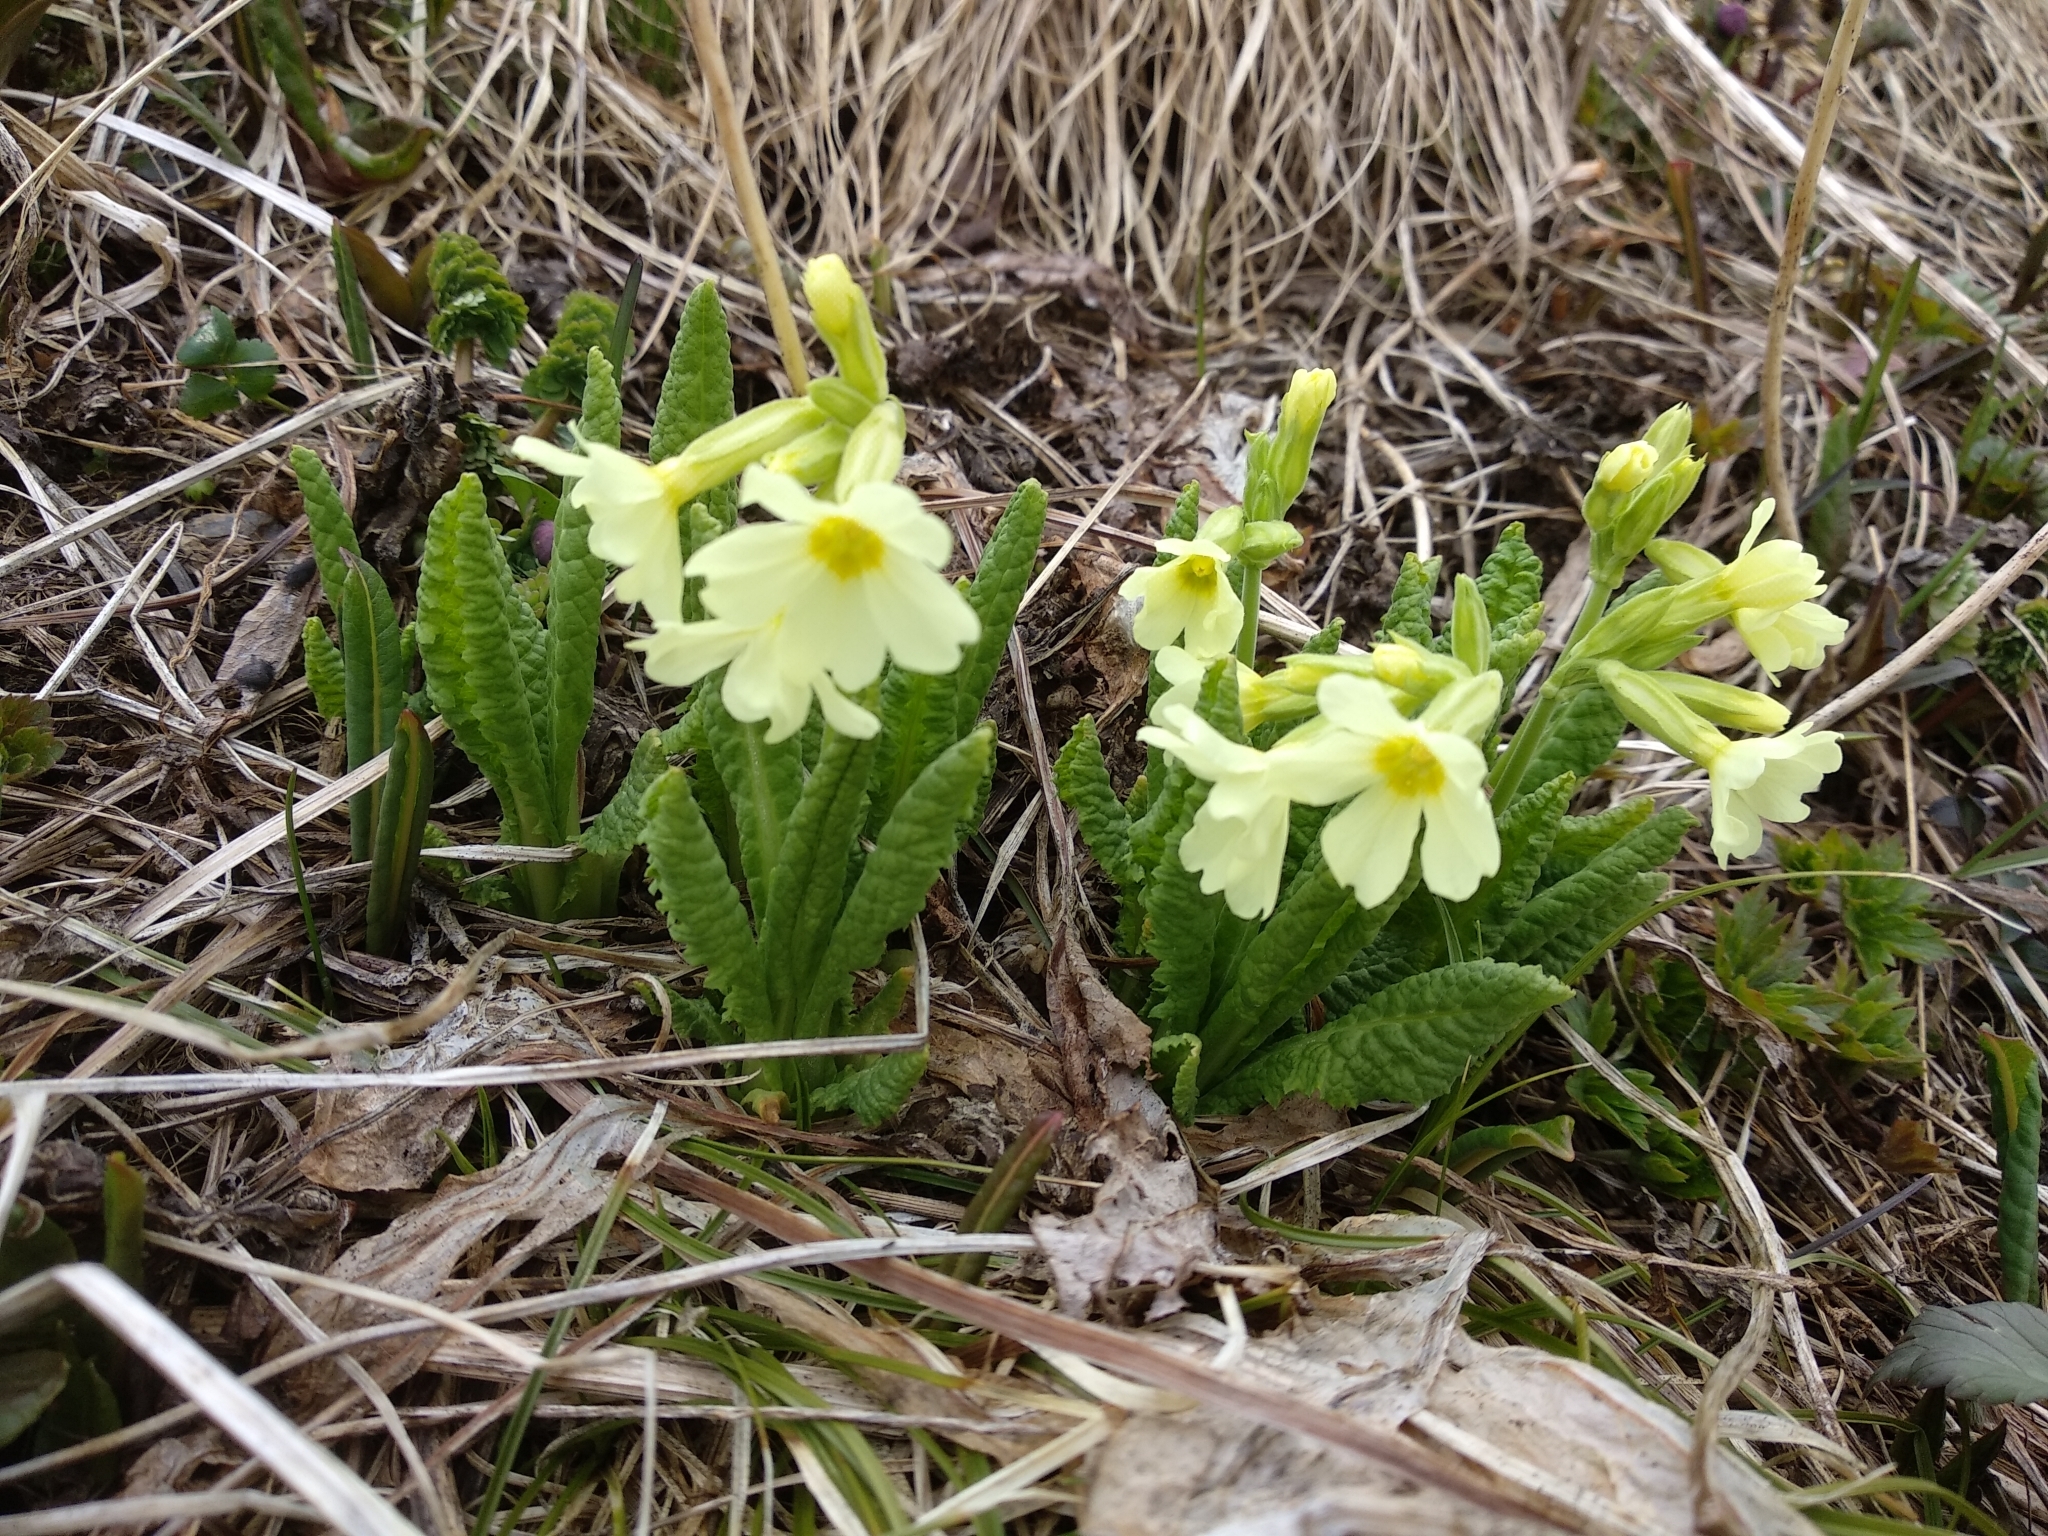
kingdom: Plantae
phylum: Tracheophyta
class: Magnoliopsida
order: Ericales
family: Primulaceae
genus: Primula
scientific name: Primula elatior
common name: Oxlip
